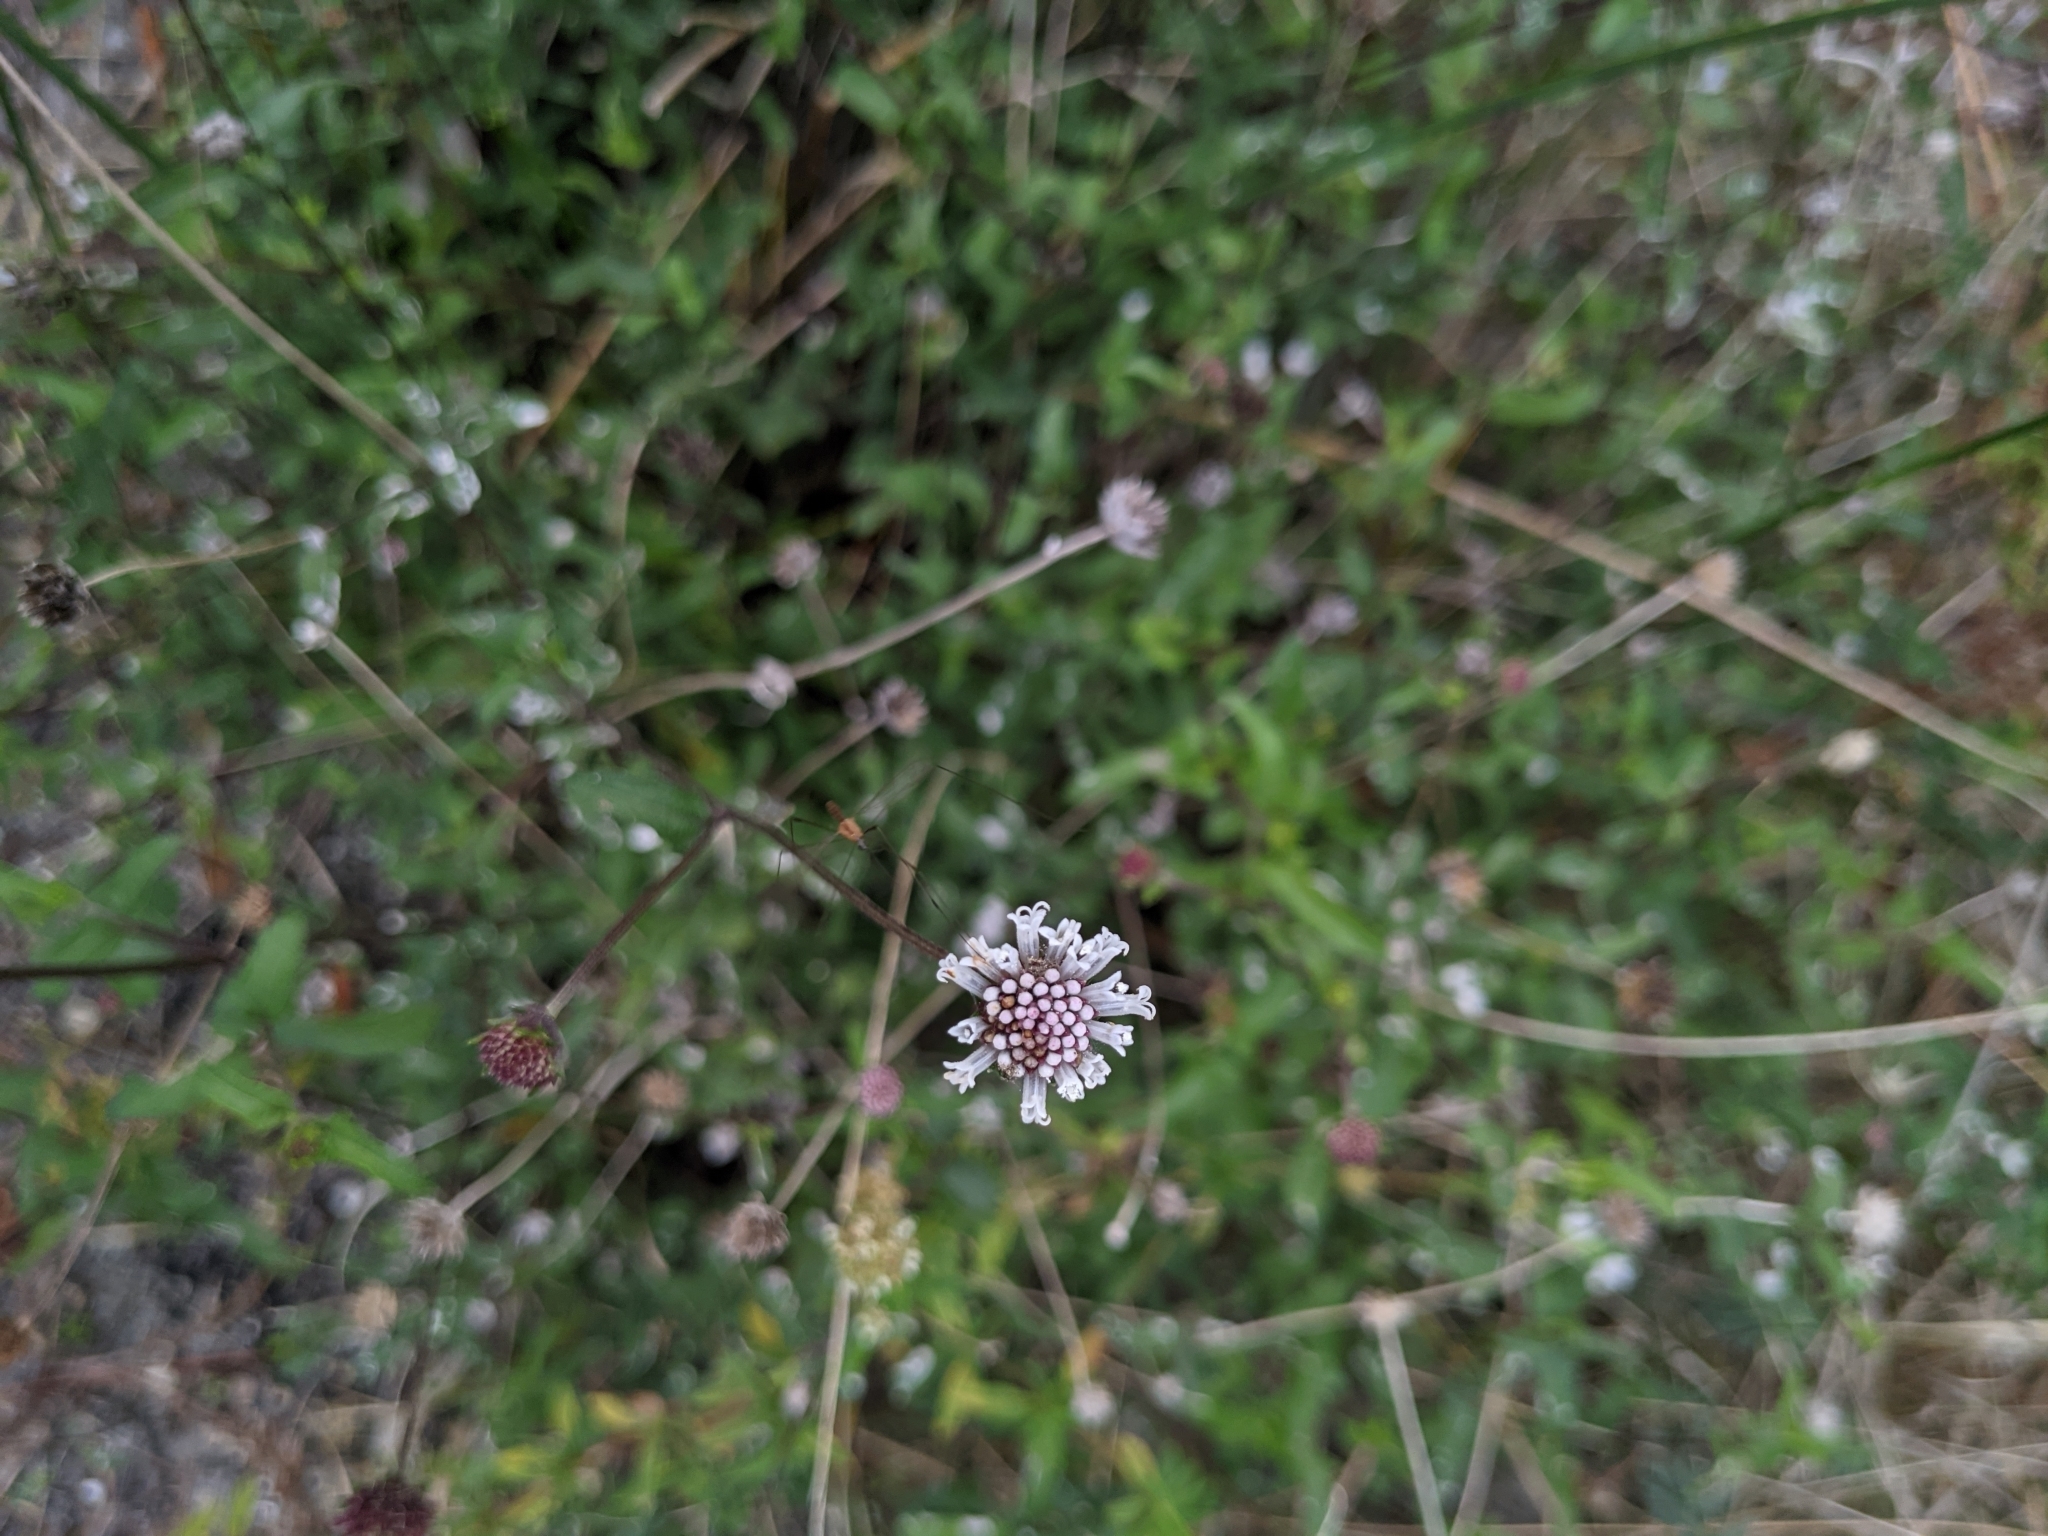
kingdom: Plantae
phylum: Tracheophyta
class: Magnoliopsida
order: Asterales
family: Asteraceae
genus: Melanthera
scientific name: Melanthera nivea
